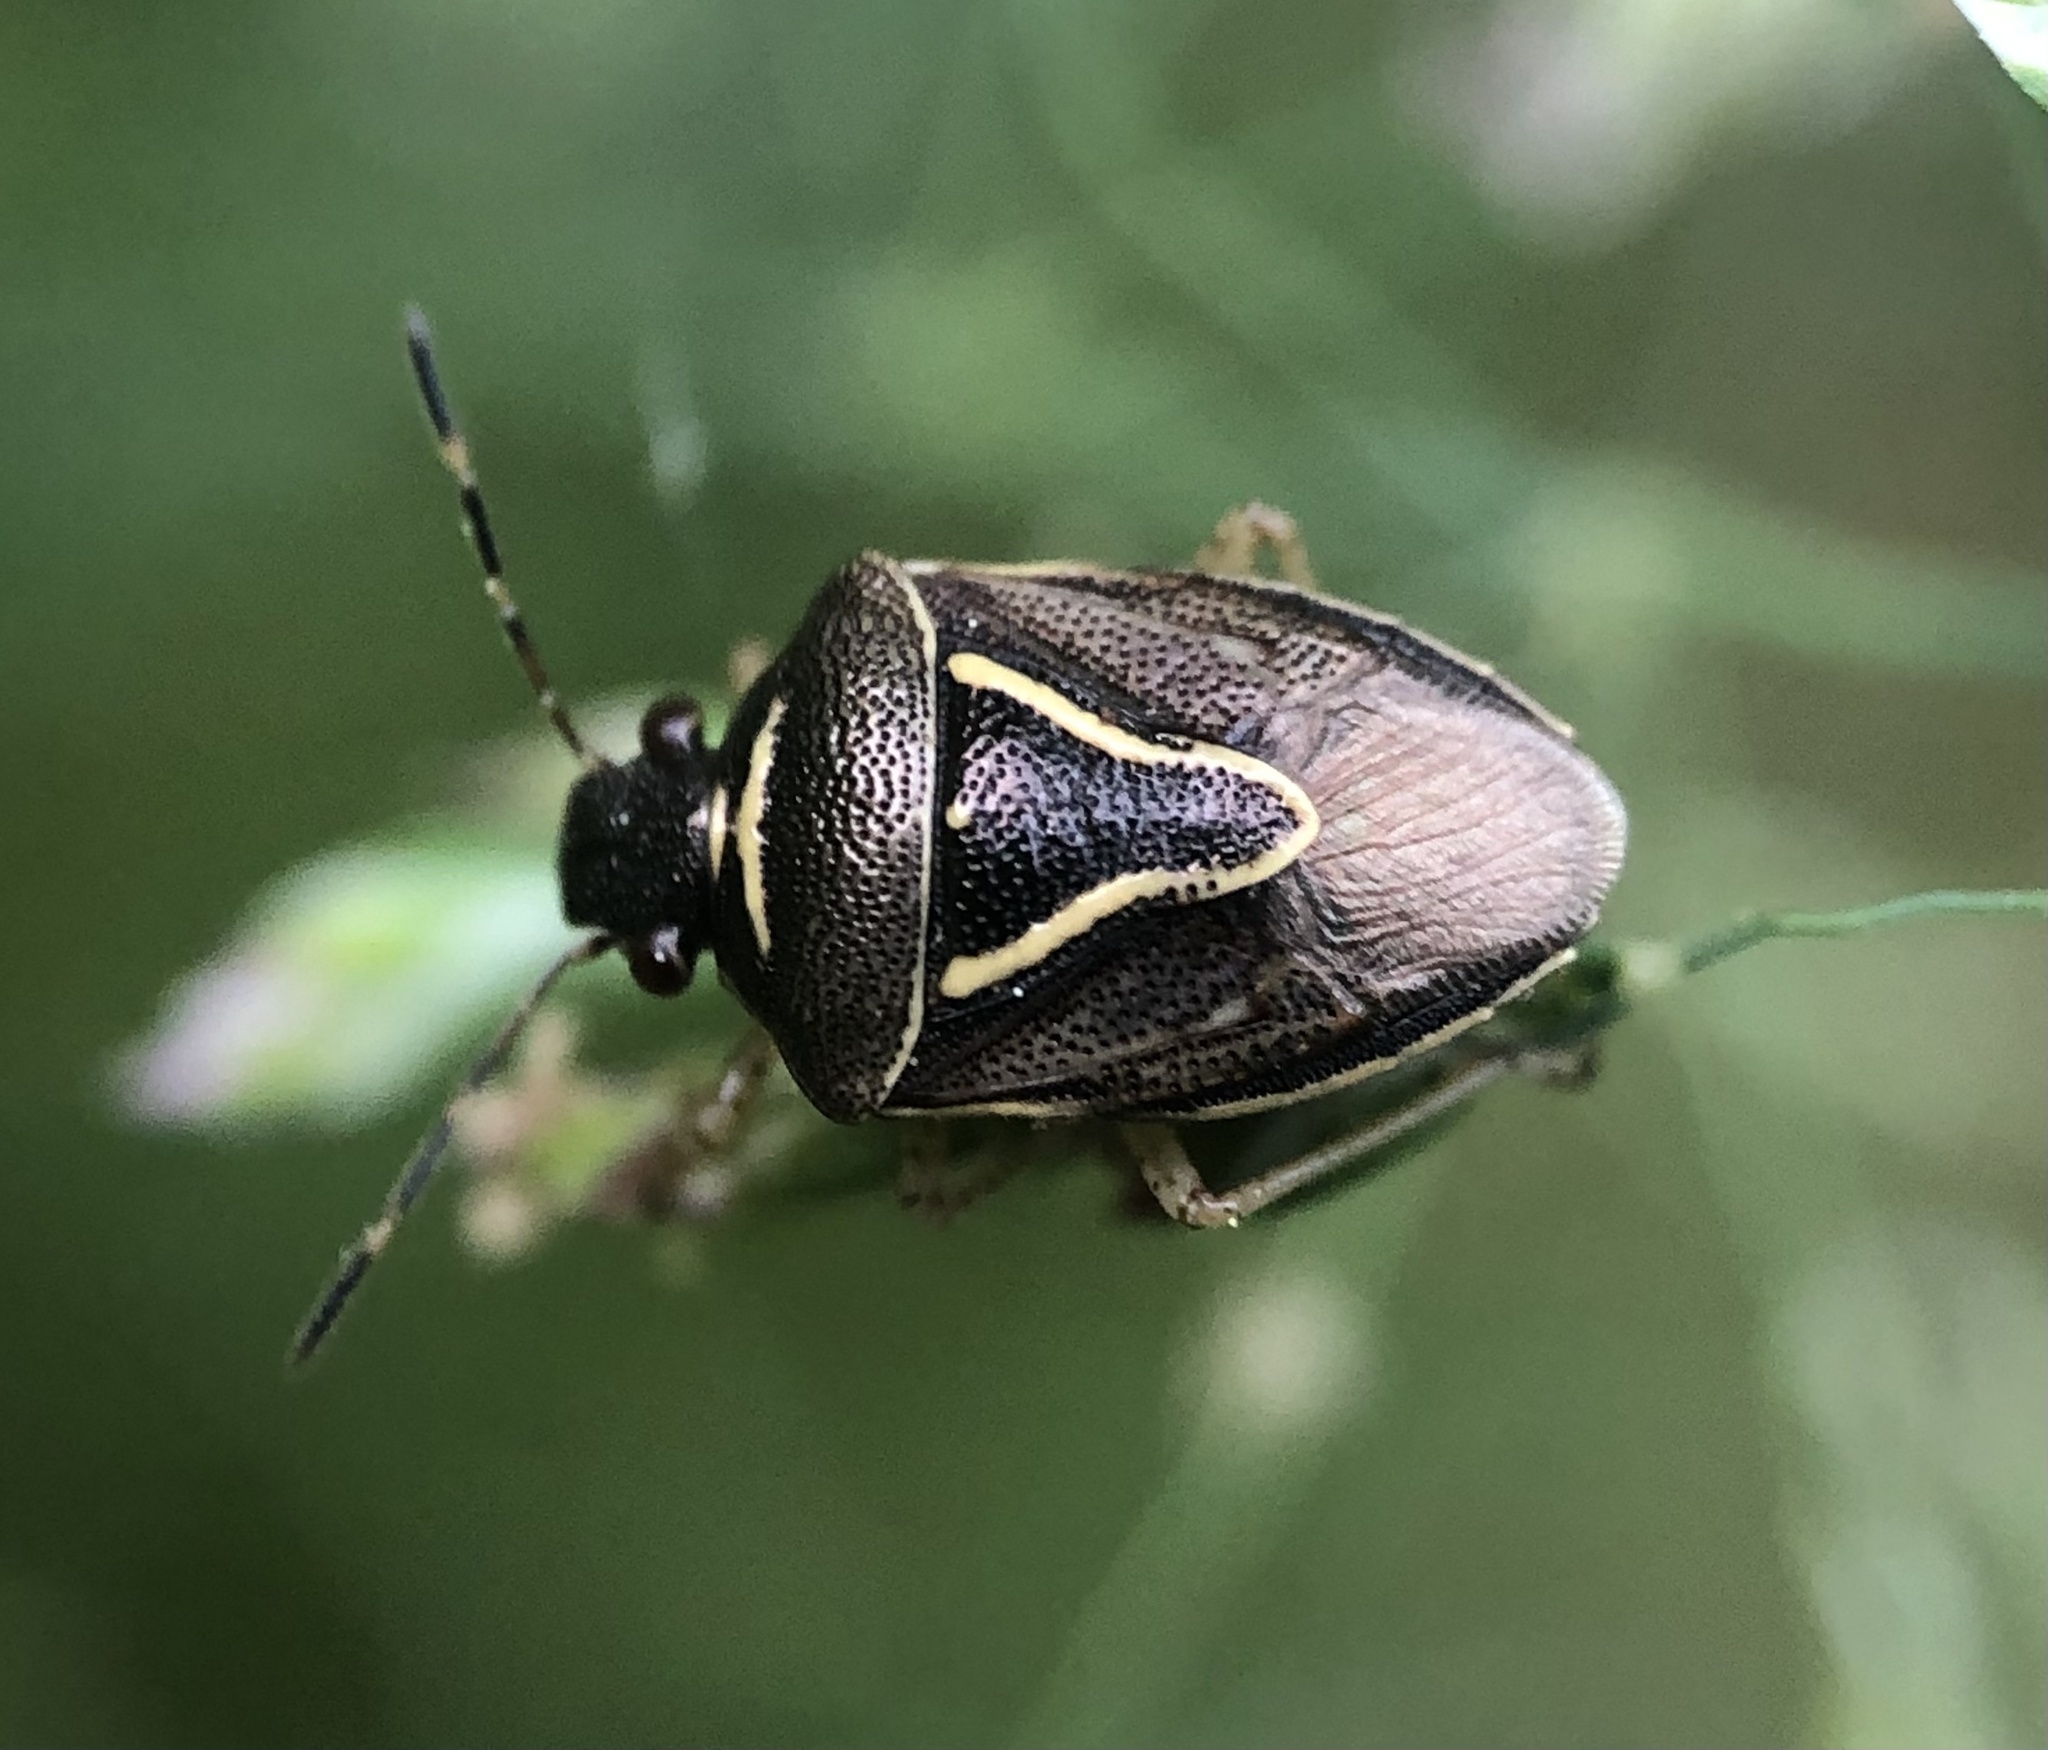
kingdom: Animalia
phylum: Arthropoda
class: Insecta
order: Hemiptera
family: Pentatomidae
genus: Mormidea
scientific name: Mormidea lugens
